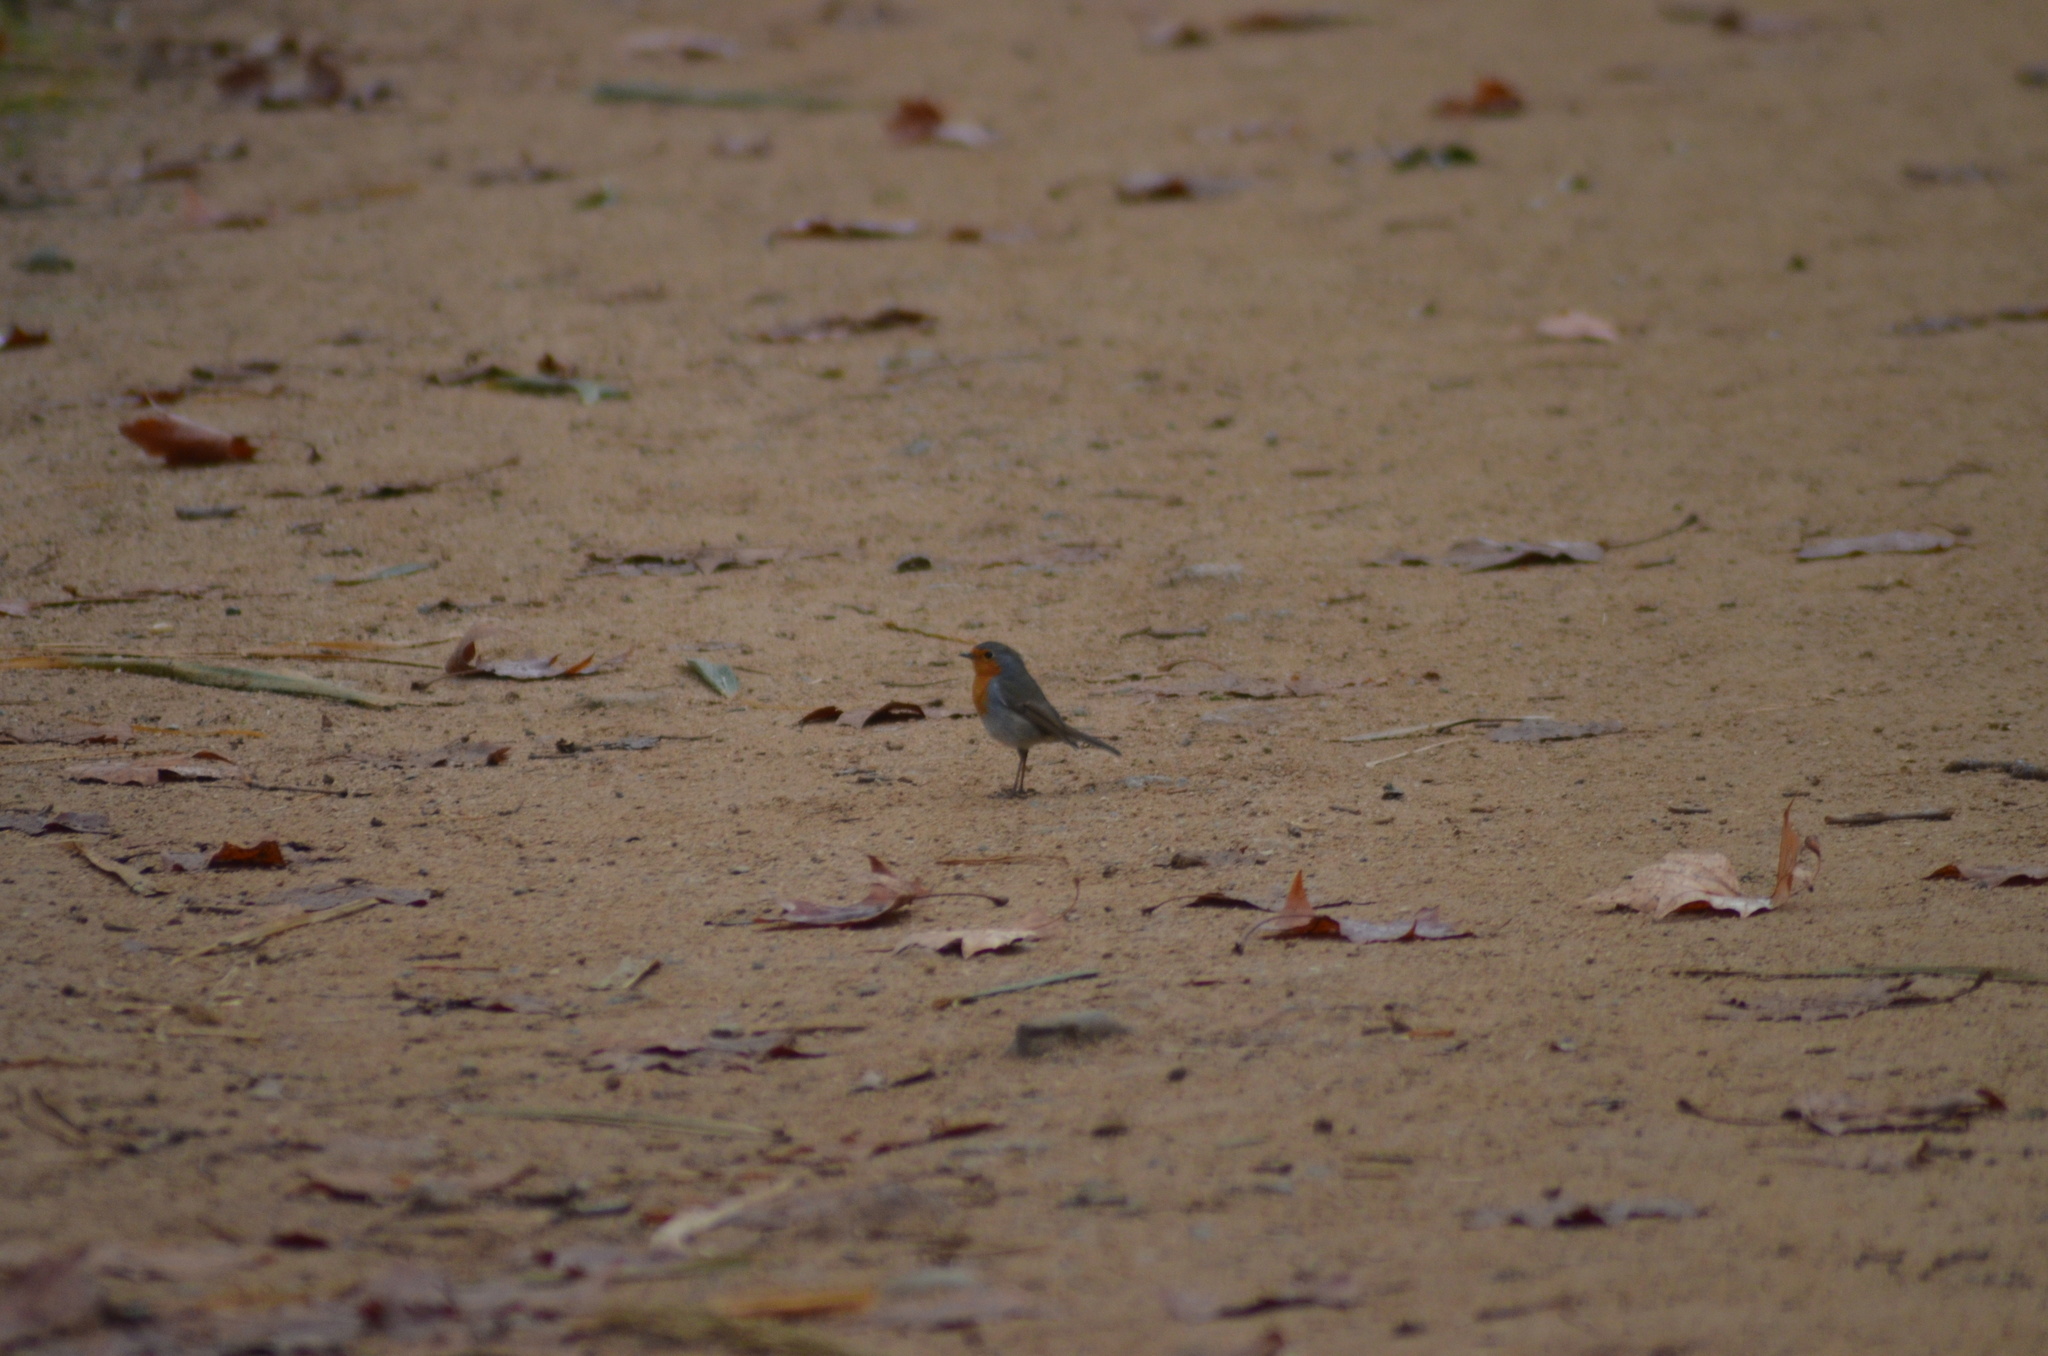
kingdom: Animalia
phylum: Chordata
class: Aves
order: Passeriformes
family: Muscicapidae
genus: Erithacus
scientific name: Erithacus rubecula
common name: European robin
